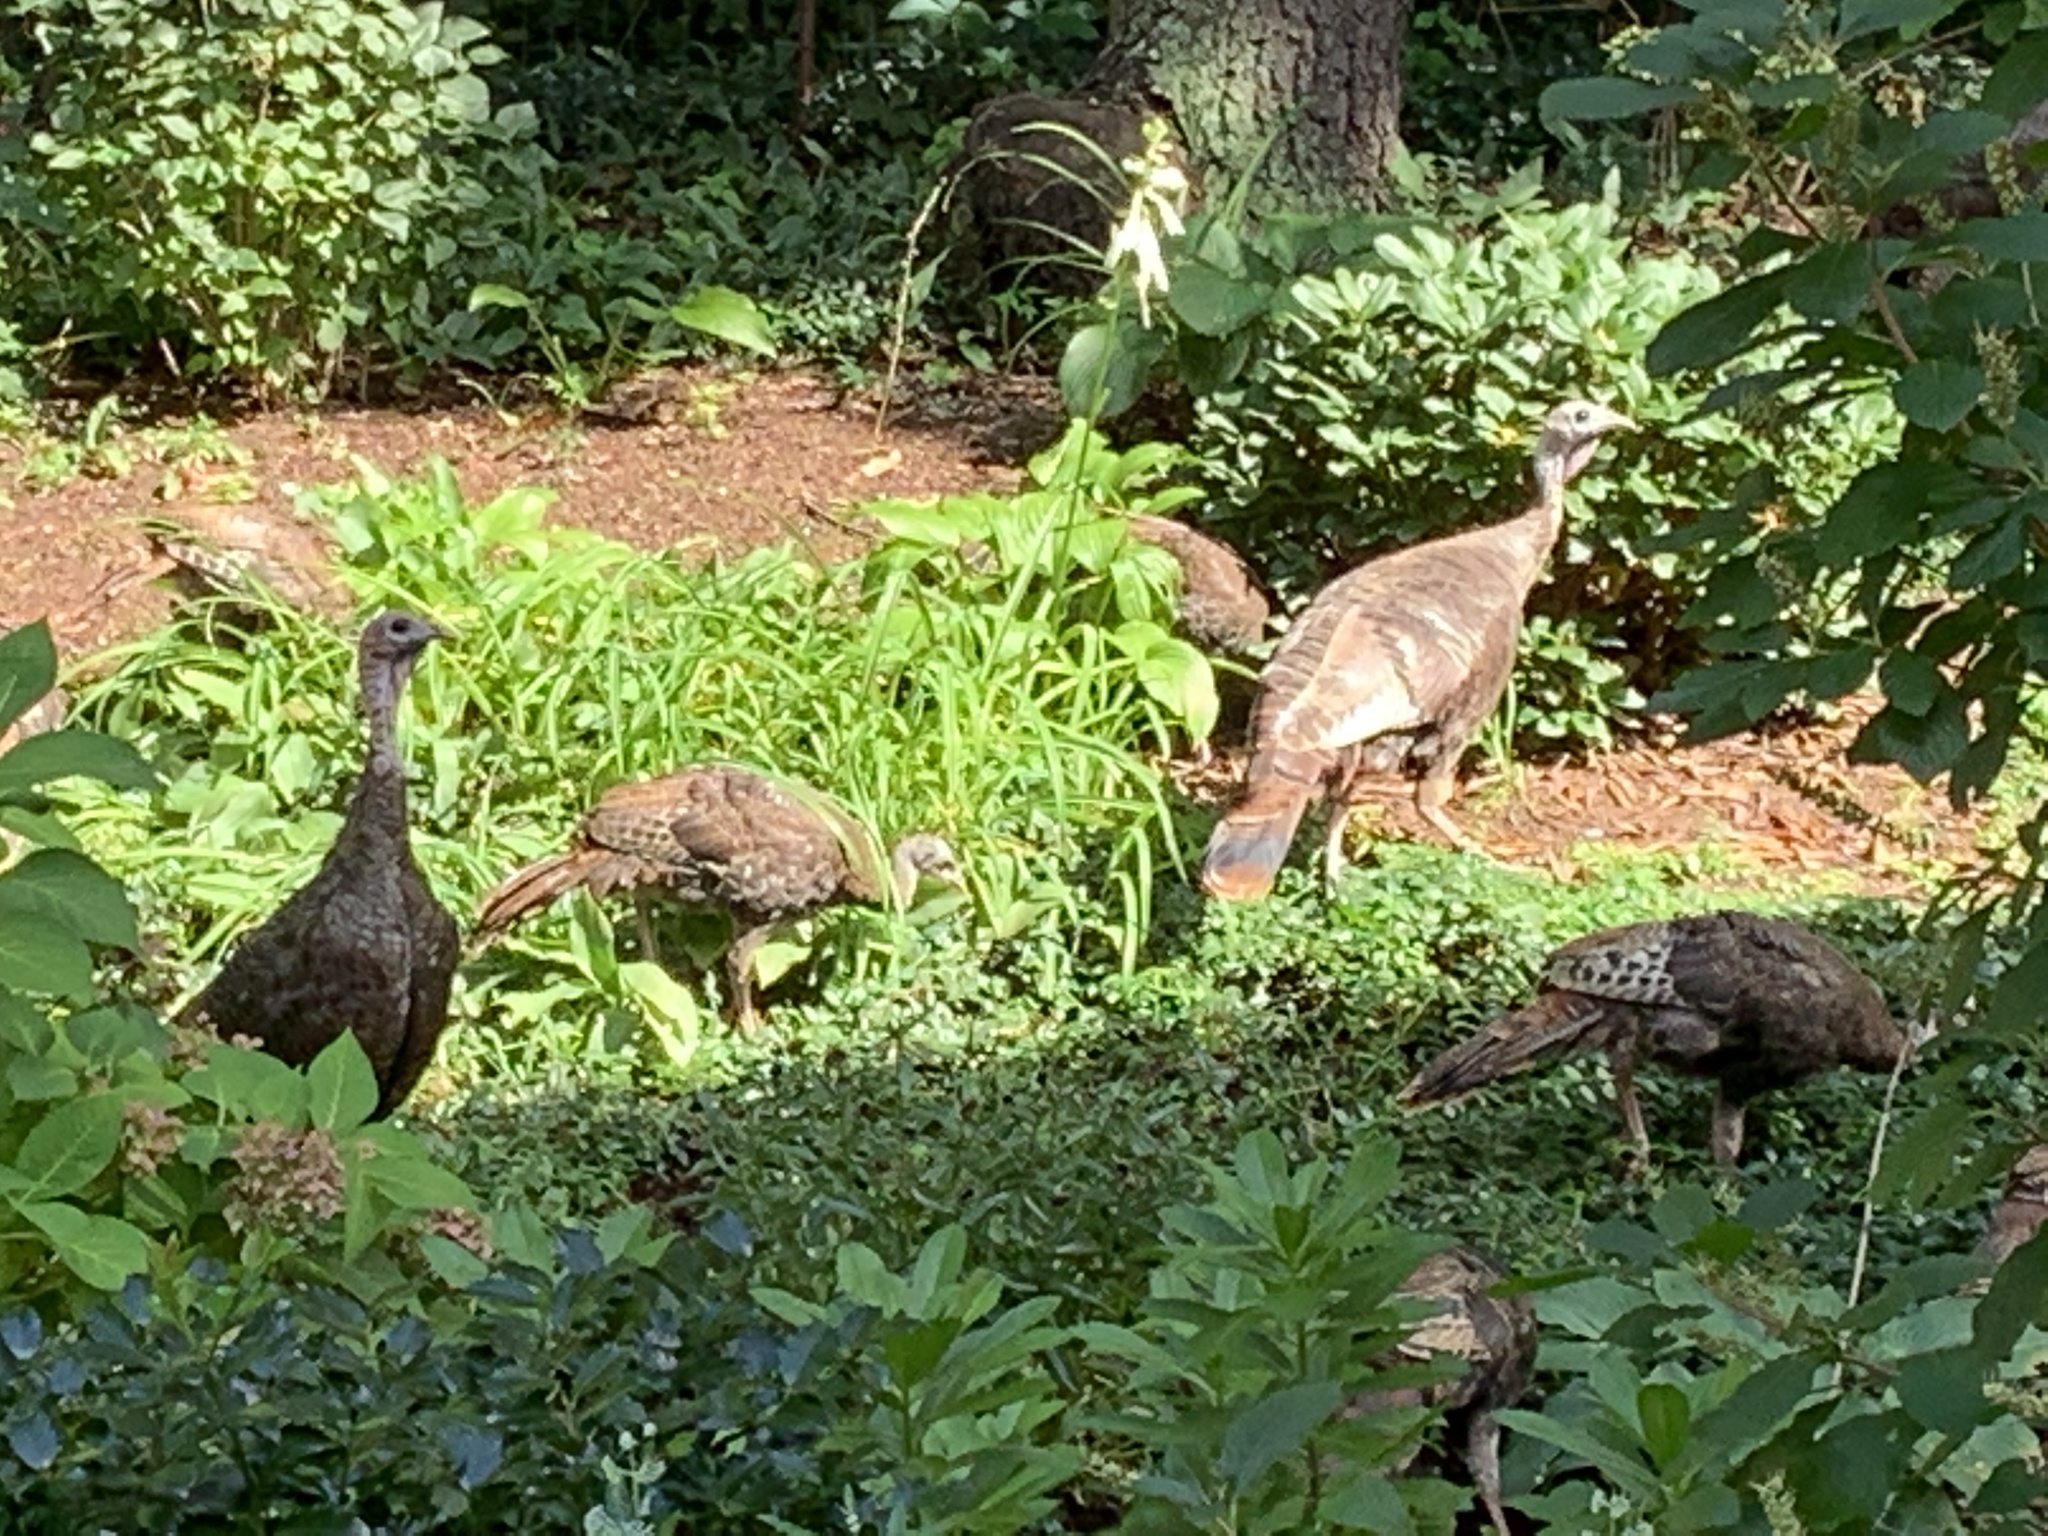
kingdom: Animalia
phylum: Chordata
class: Aves
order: Galliformes
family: Phasianidae
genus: Meleagris
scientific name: Meleagris gallopavo
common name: Wild turkey
